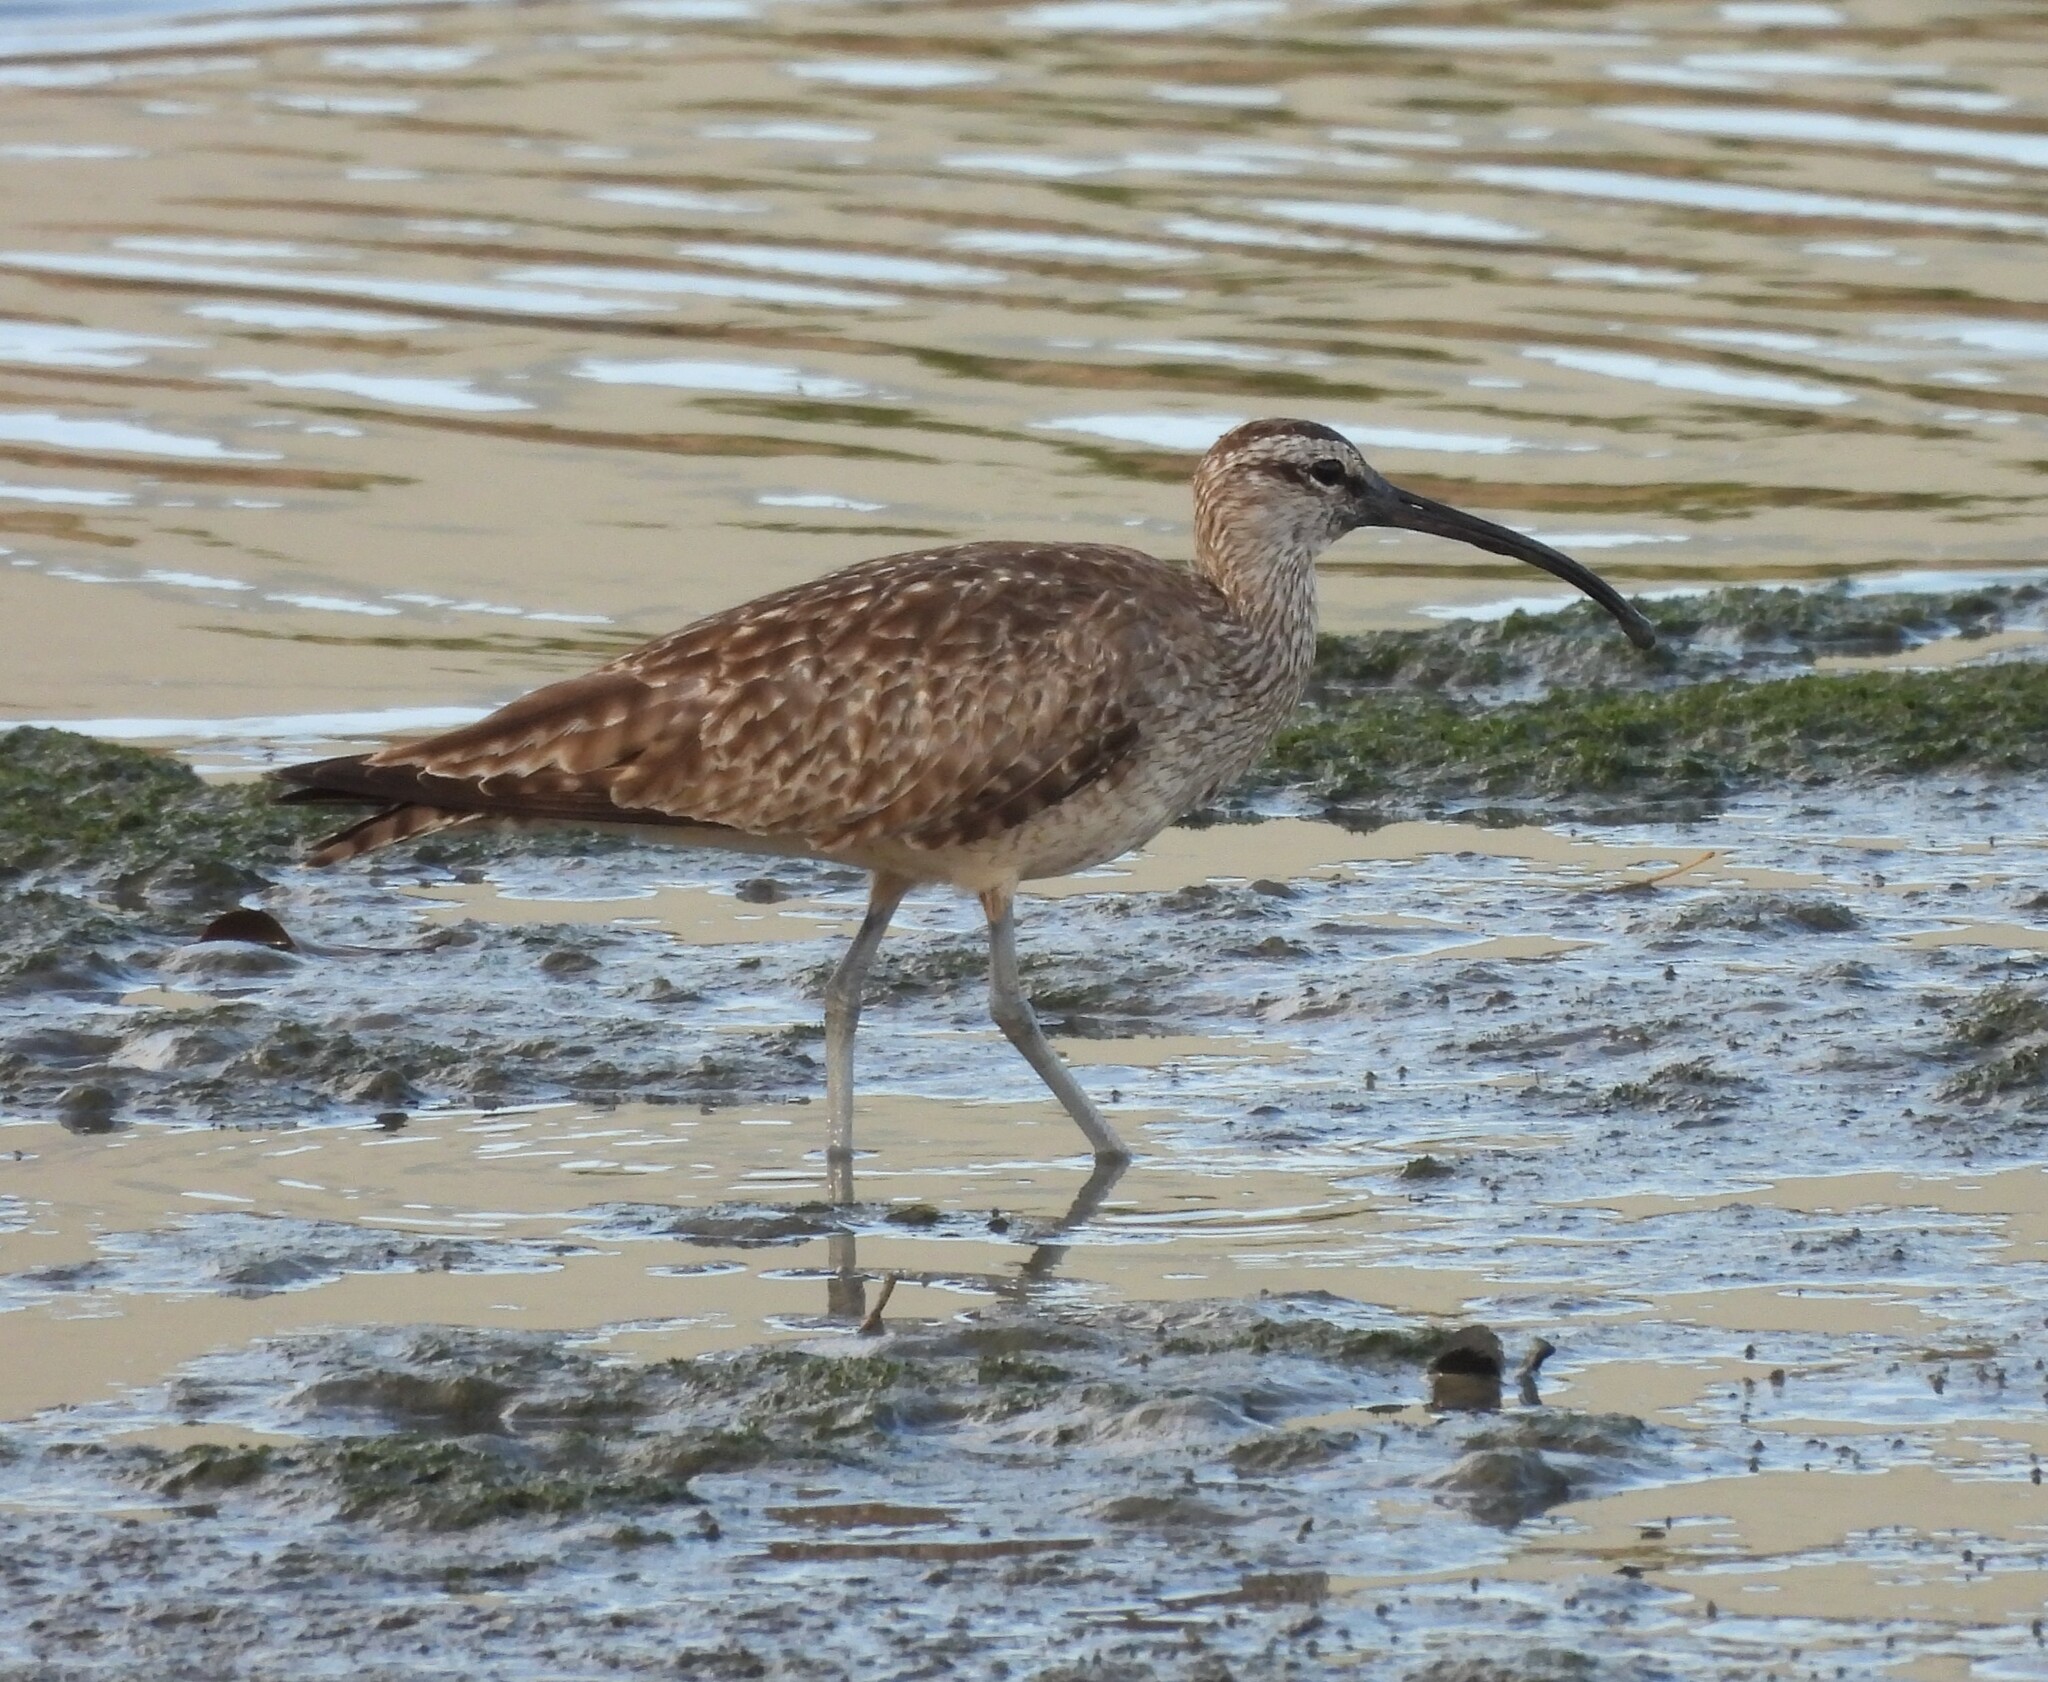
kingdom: Animalia
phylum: Chordata
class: Aves
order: Charadriiformes
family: Scolopacidae
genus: Numenius
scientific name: Numenius phaeopus
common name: Whimbrel
